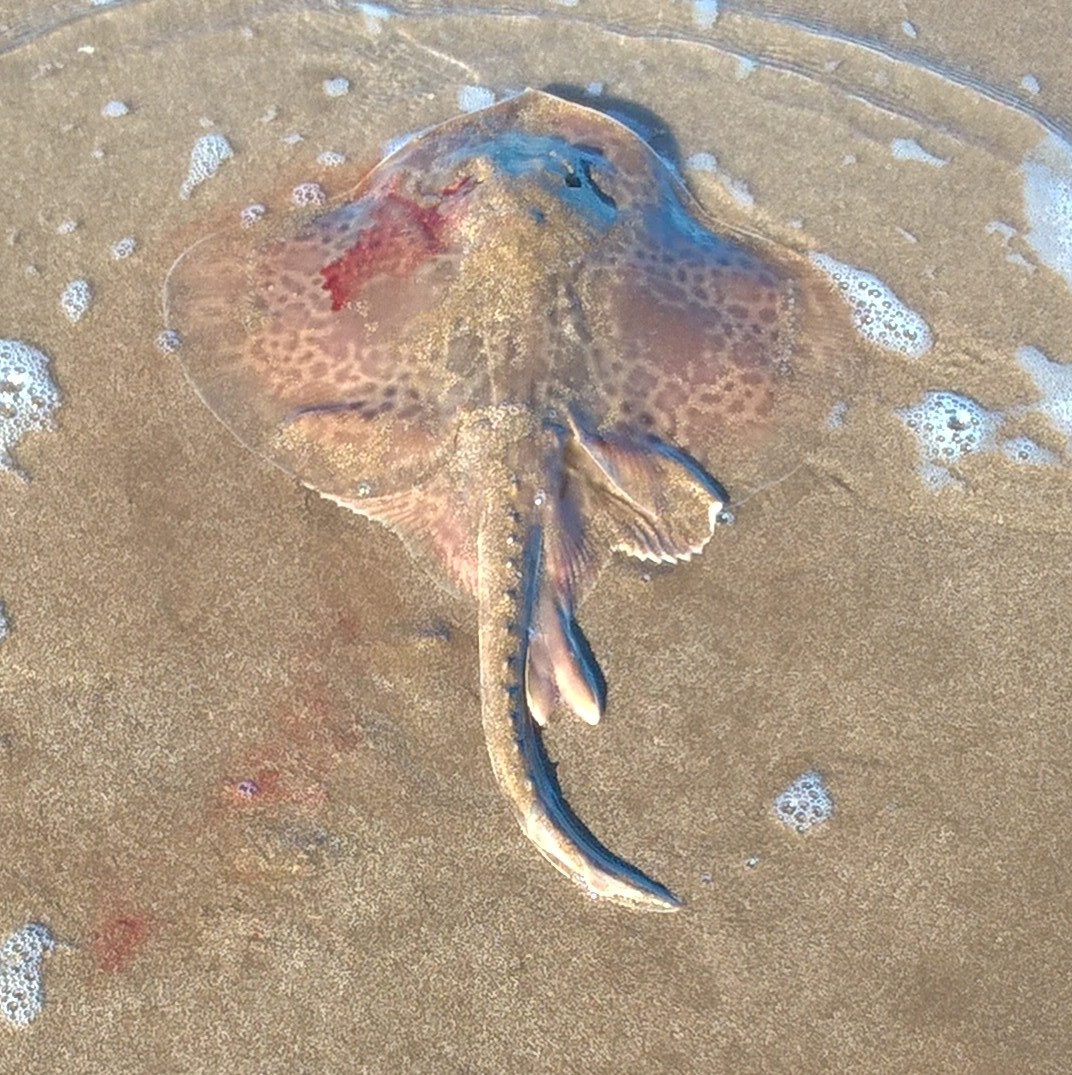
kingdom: Animalia
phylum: Chordata
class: Elasmobranchii
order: Rajiformes
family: Arhynchobatidae
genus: Sympterygia
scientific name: Sympterygia bonapartii
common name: Smallnose fanskate
